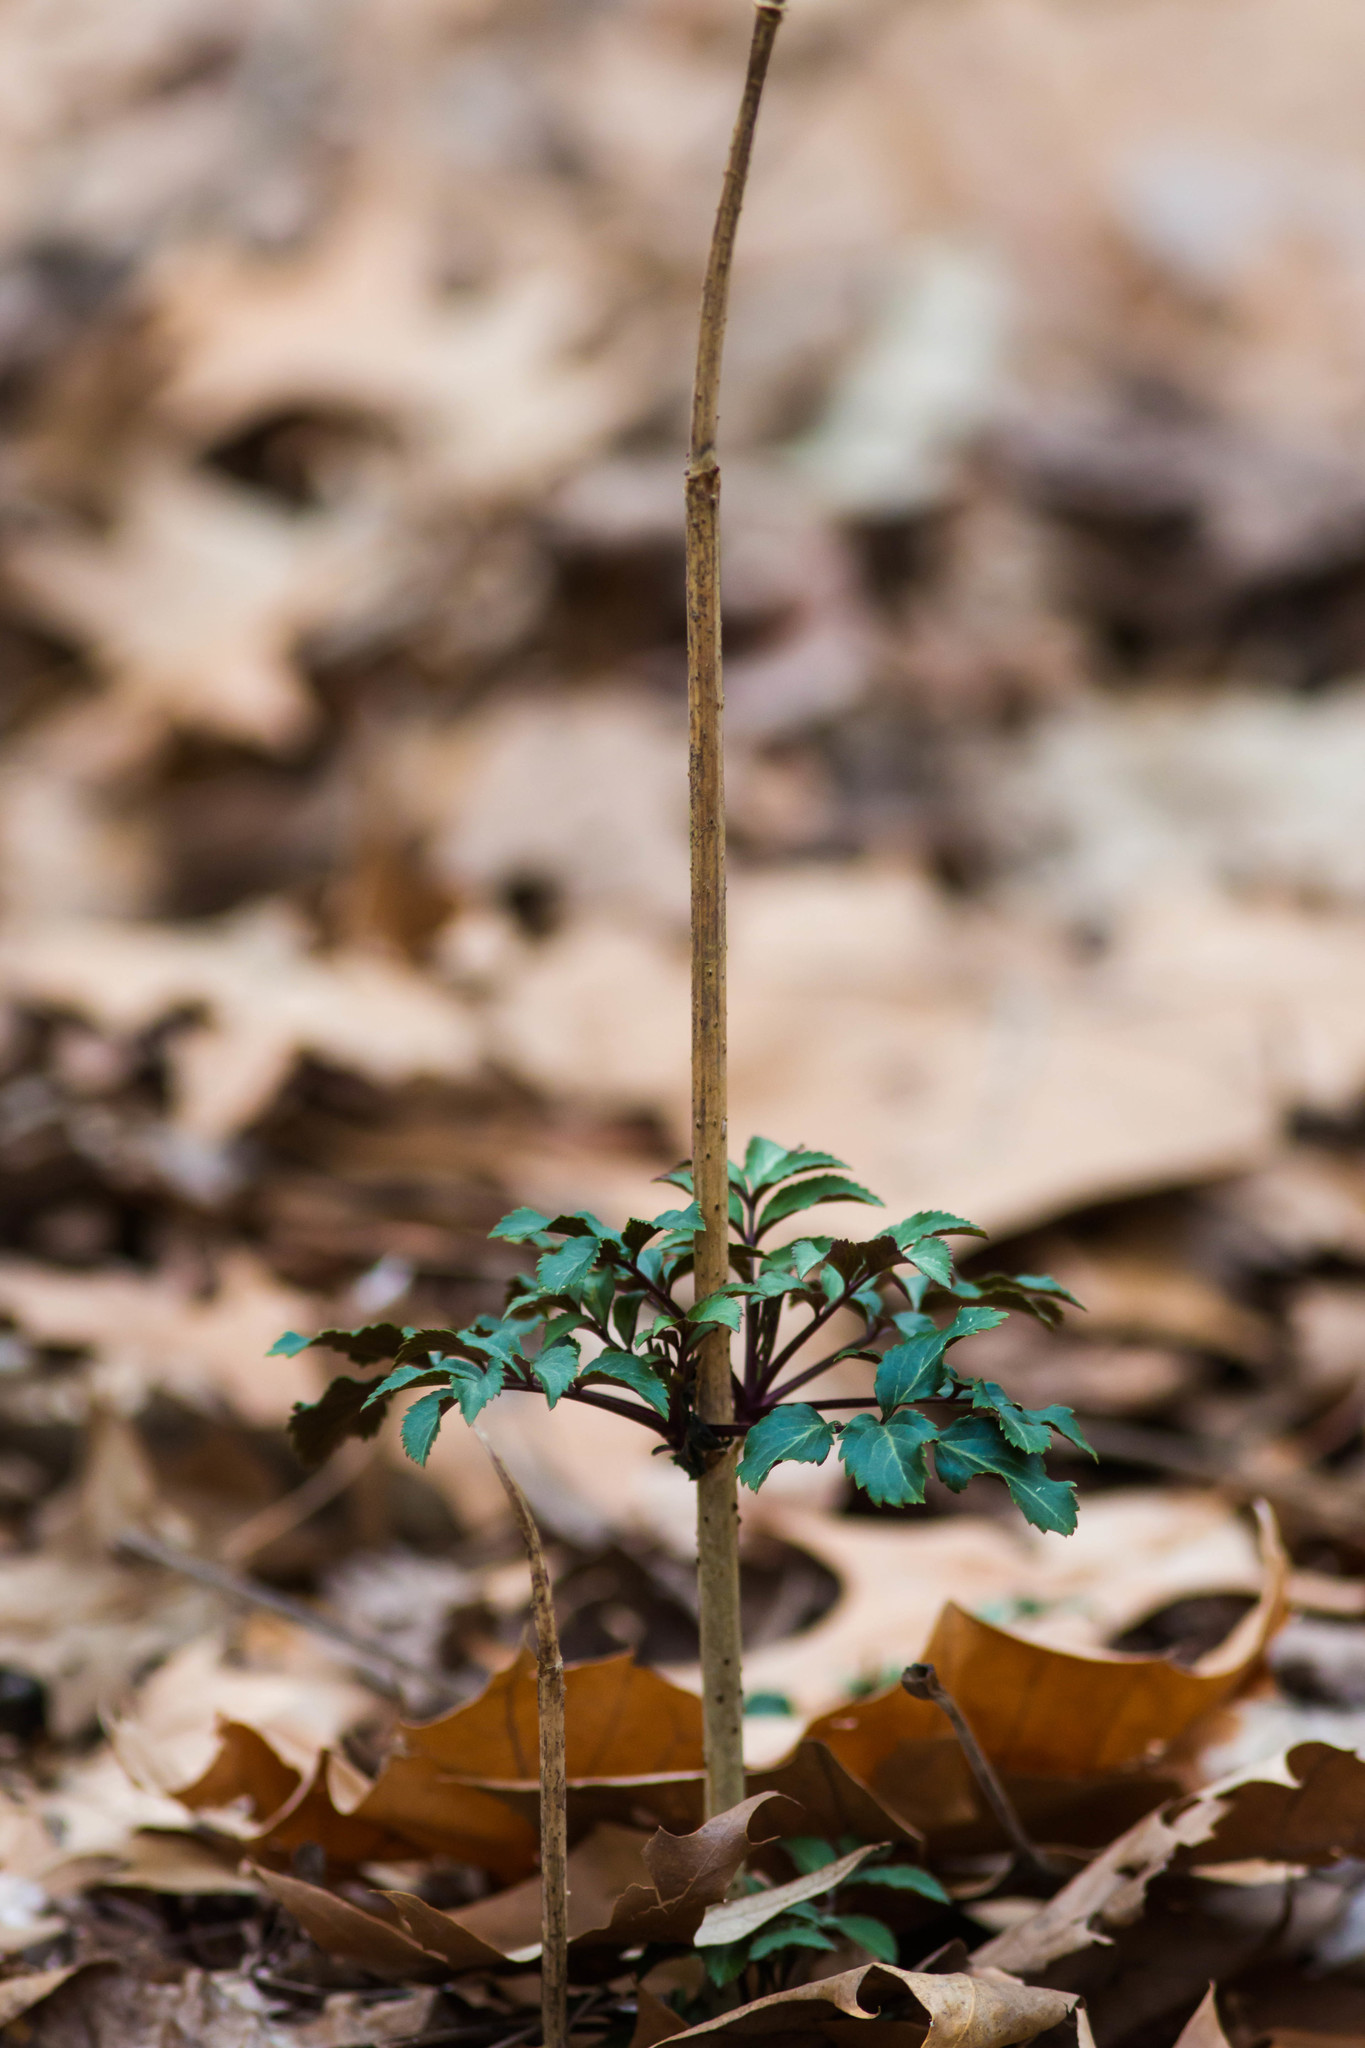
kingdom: Plantae
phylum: Tracheophyta
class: Magnoliopsida
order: Dipsacales
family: Viburnaceae
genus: Sambucus
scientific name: Sambucus canadensis
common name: American elder
